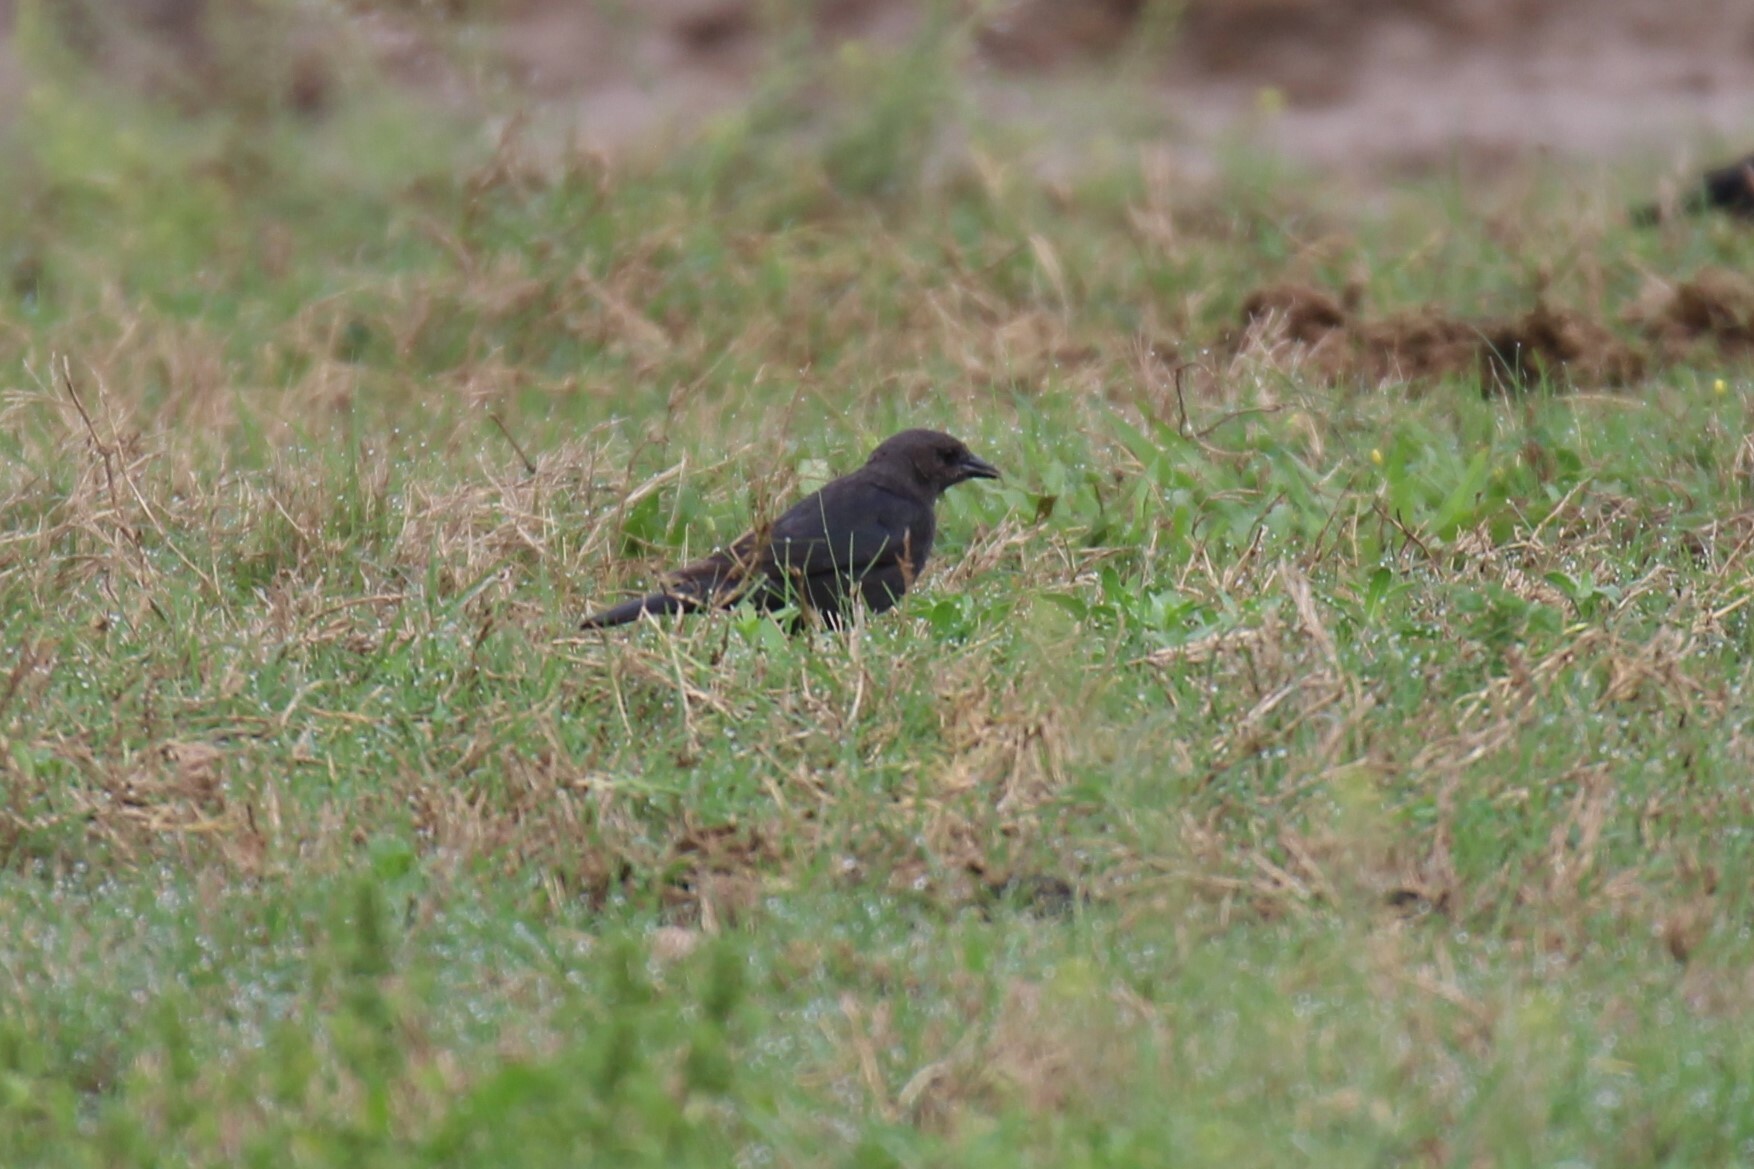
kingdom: Animalia
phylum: Chordata
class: Aves
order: Passeriformes
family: Icteridae
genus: Euphagus
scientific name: Euphagus cyanocephalus
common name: Brewer's blackbird
